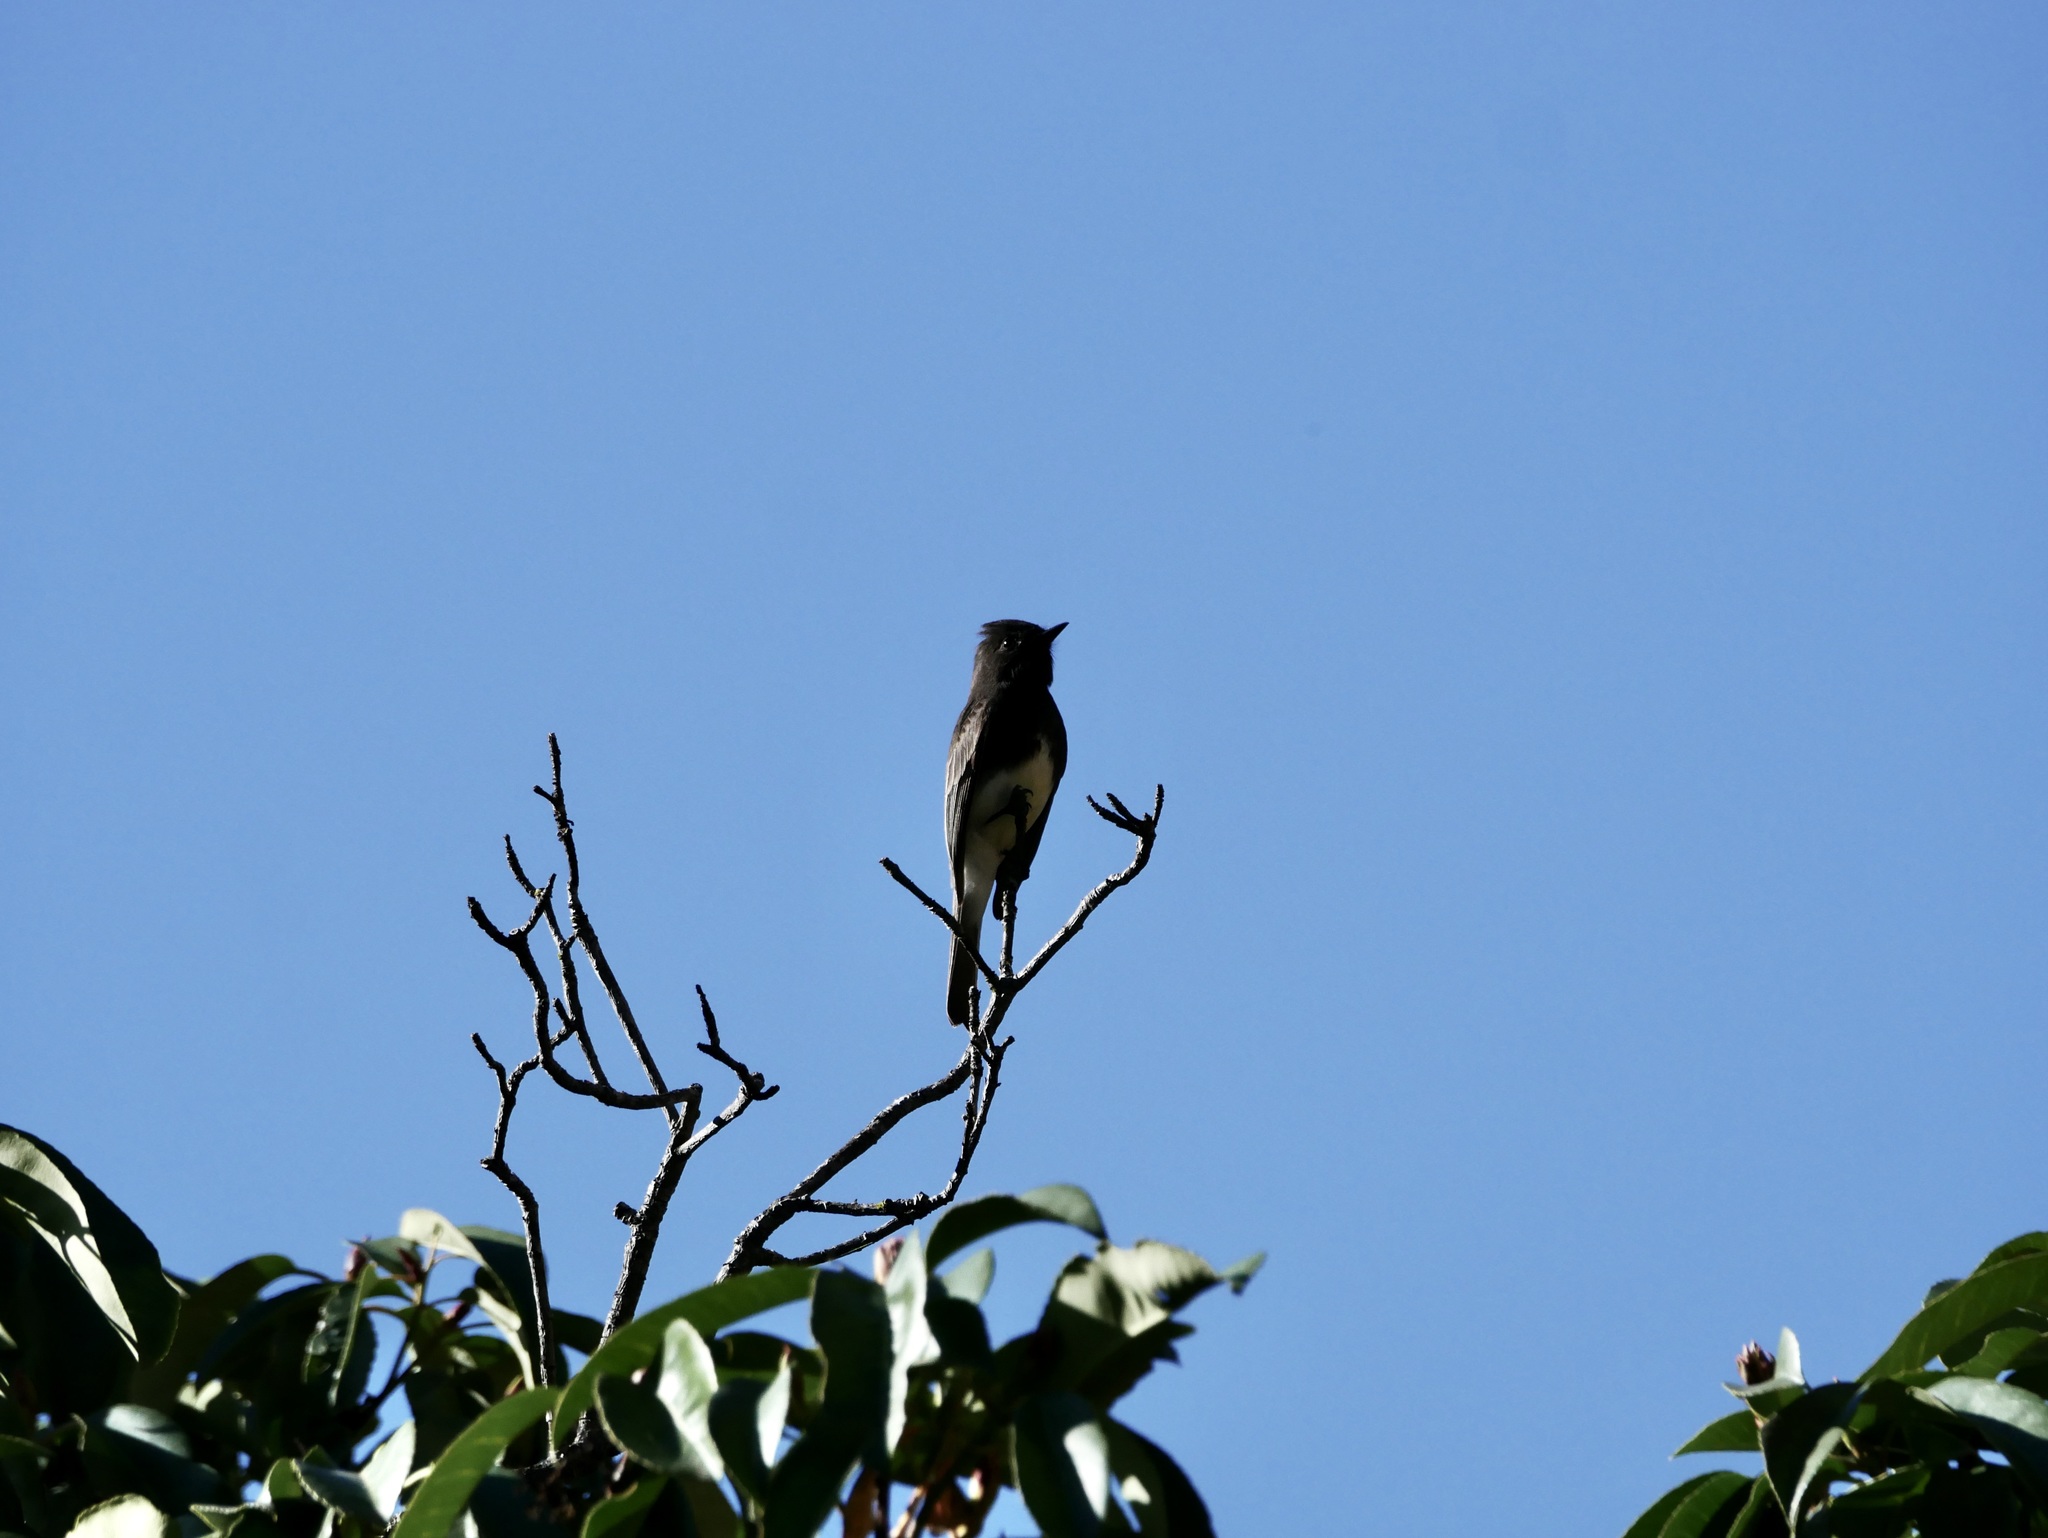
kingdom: Animalia
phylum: Chordata
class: Aves
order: Passeriformes
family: Tyrannidae
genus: Sayornis
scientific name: Sayornis nigricans
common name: Black phoebe
